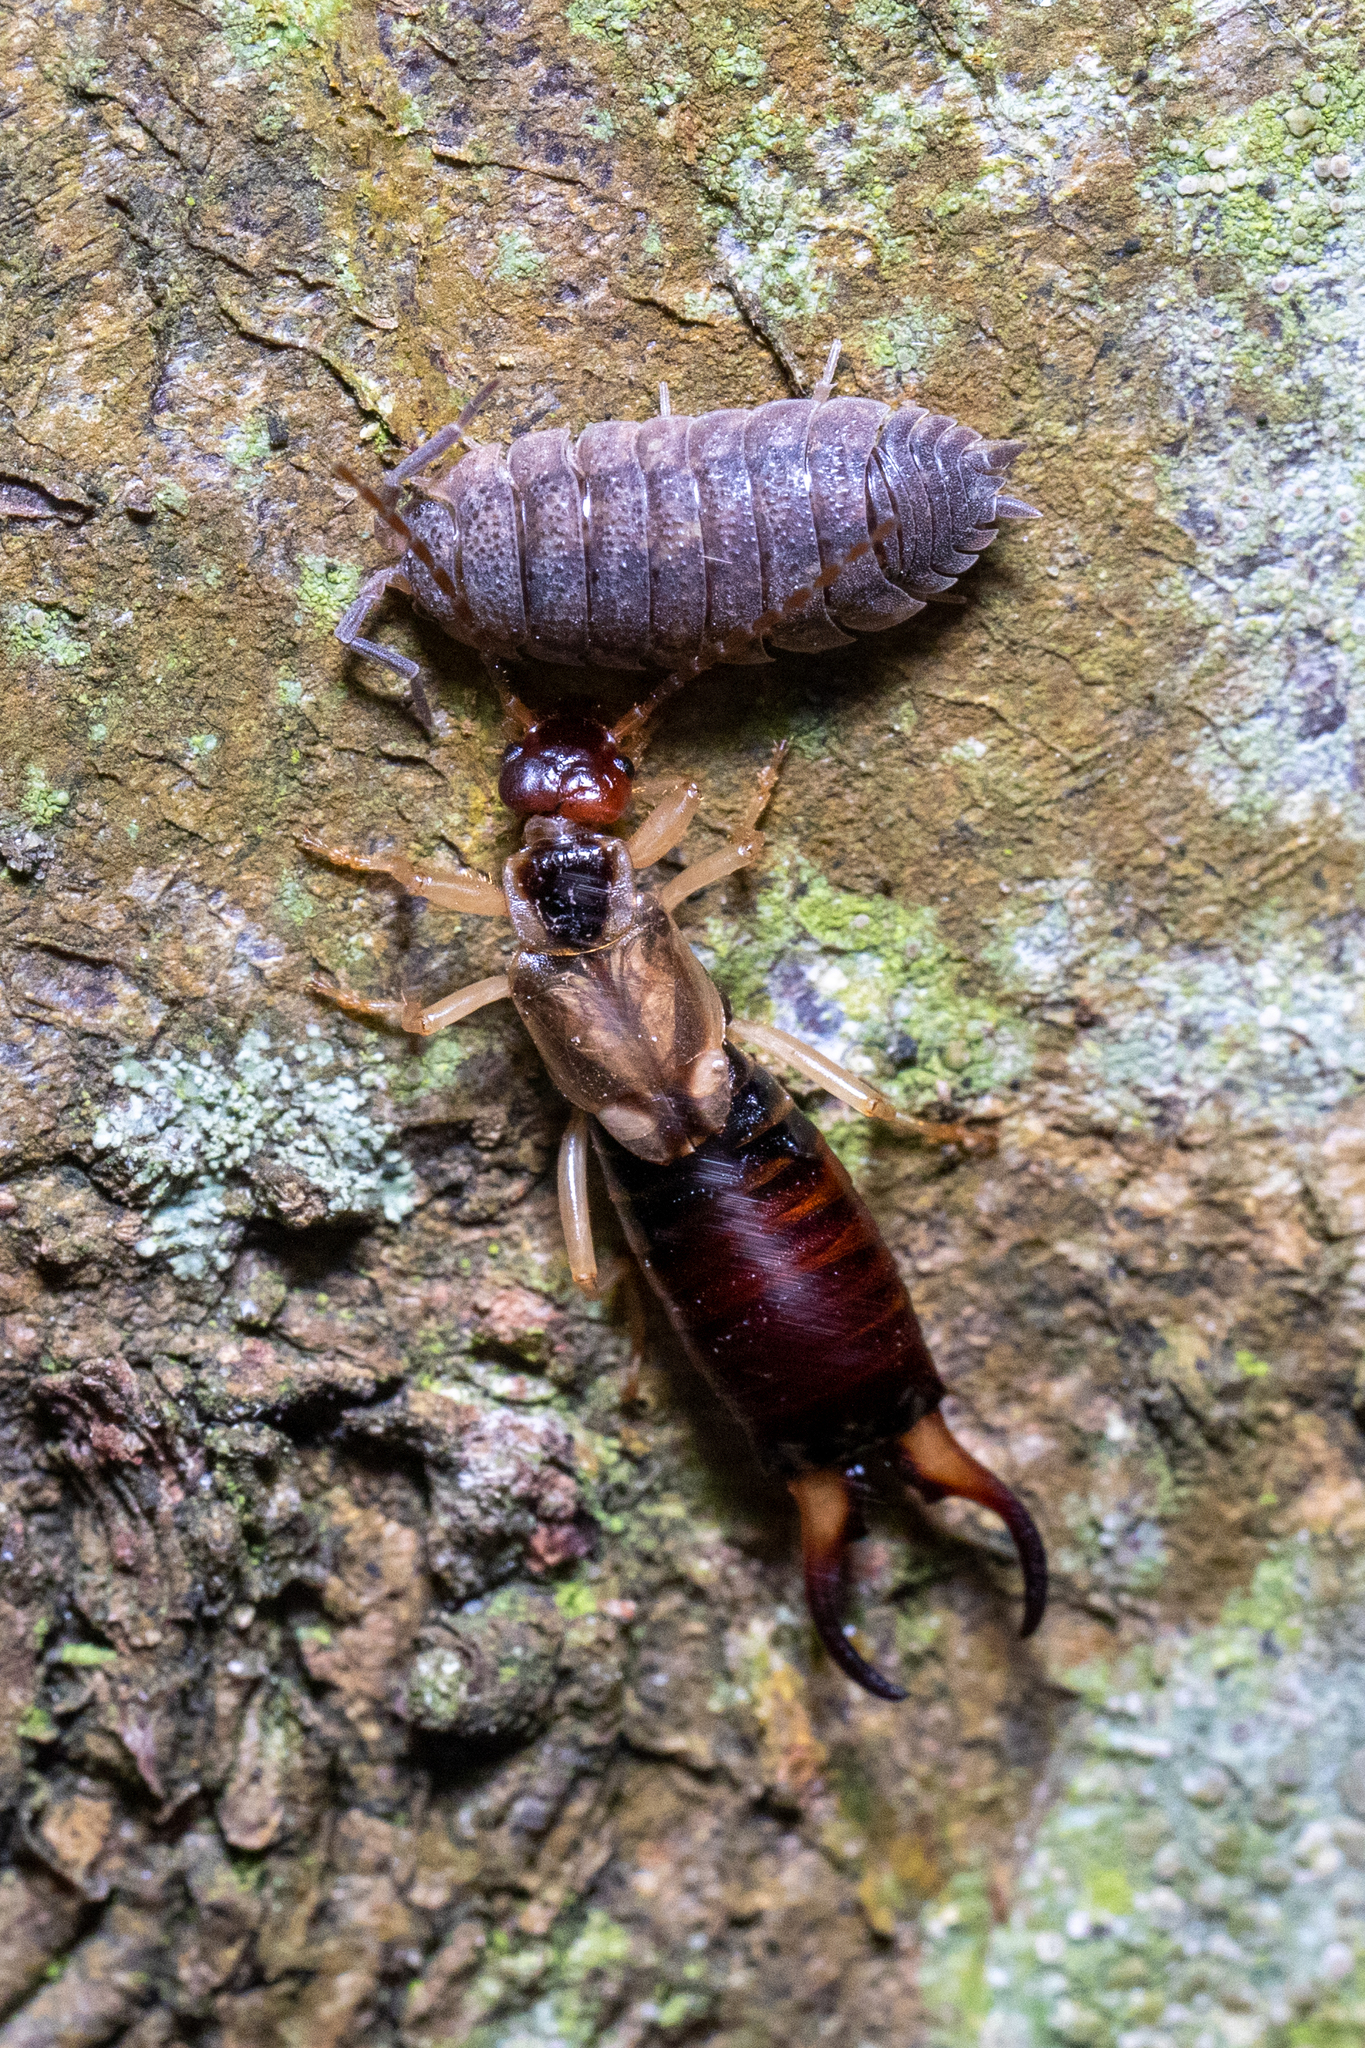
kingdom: Animalia
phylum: Arthropoda
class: Insecta
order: Dermaptera
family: Forficulidae
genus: Forficula
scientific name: Forficula
